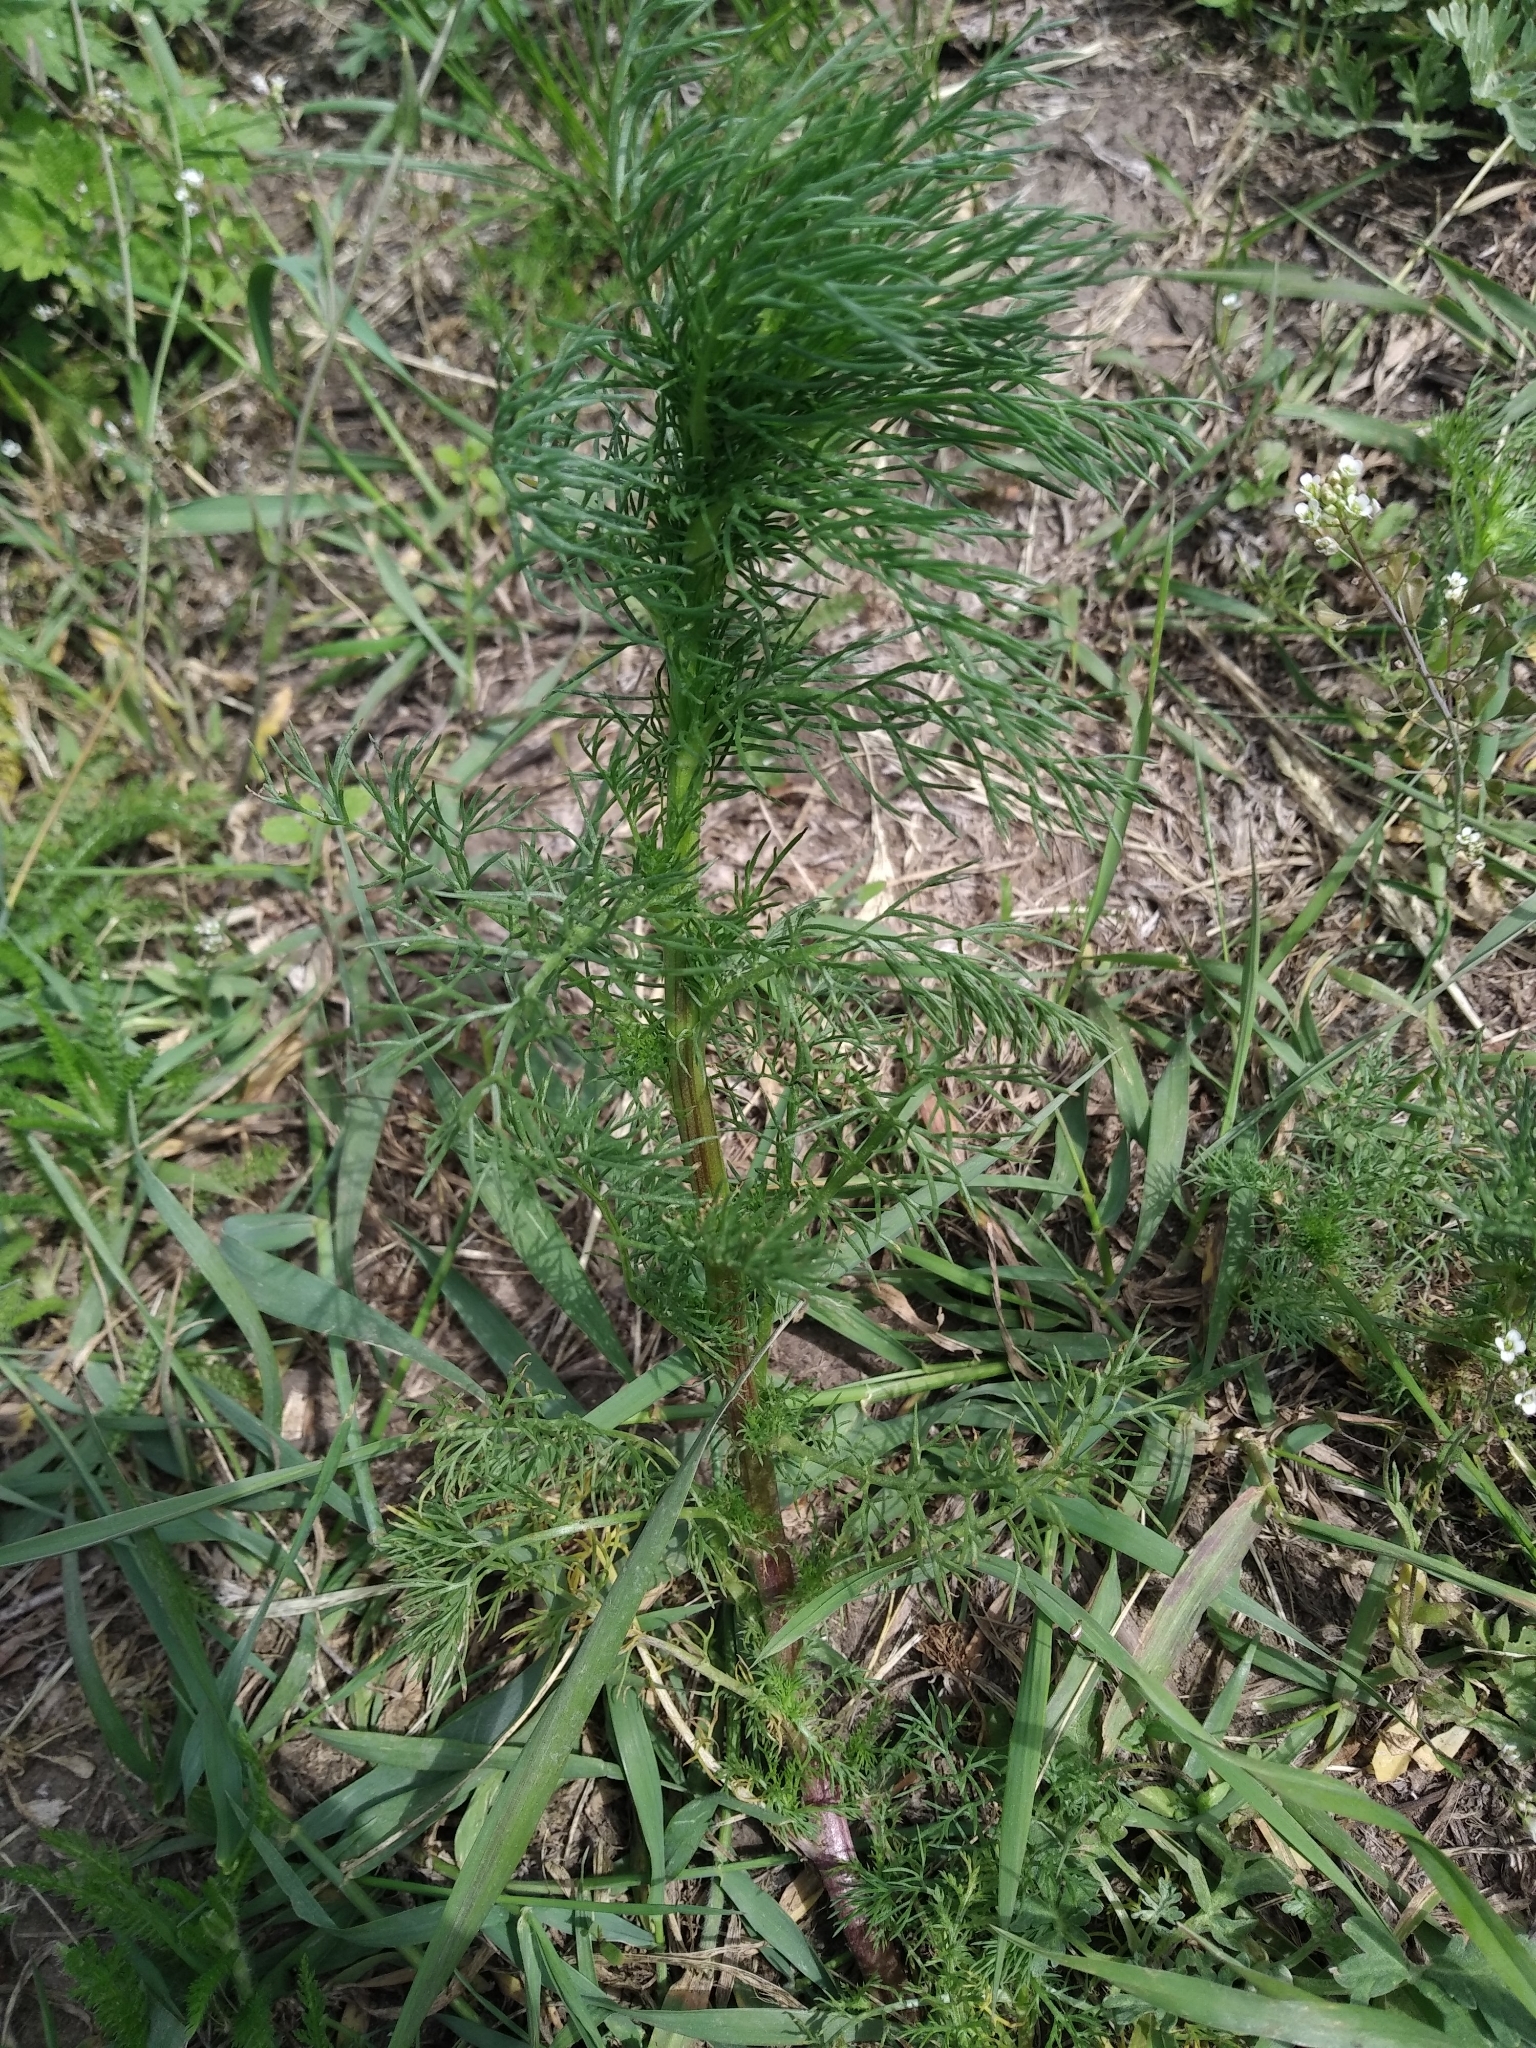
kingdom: Plantae
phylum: Tracheophyta
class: Magnoliopsida
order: Asterales
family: Asteraceae
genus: Tripleurospermum
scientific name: Tripleurospermum inodorum
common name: Scentless mayweed
